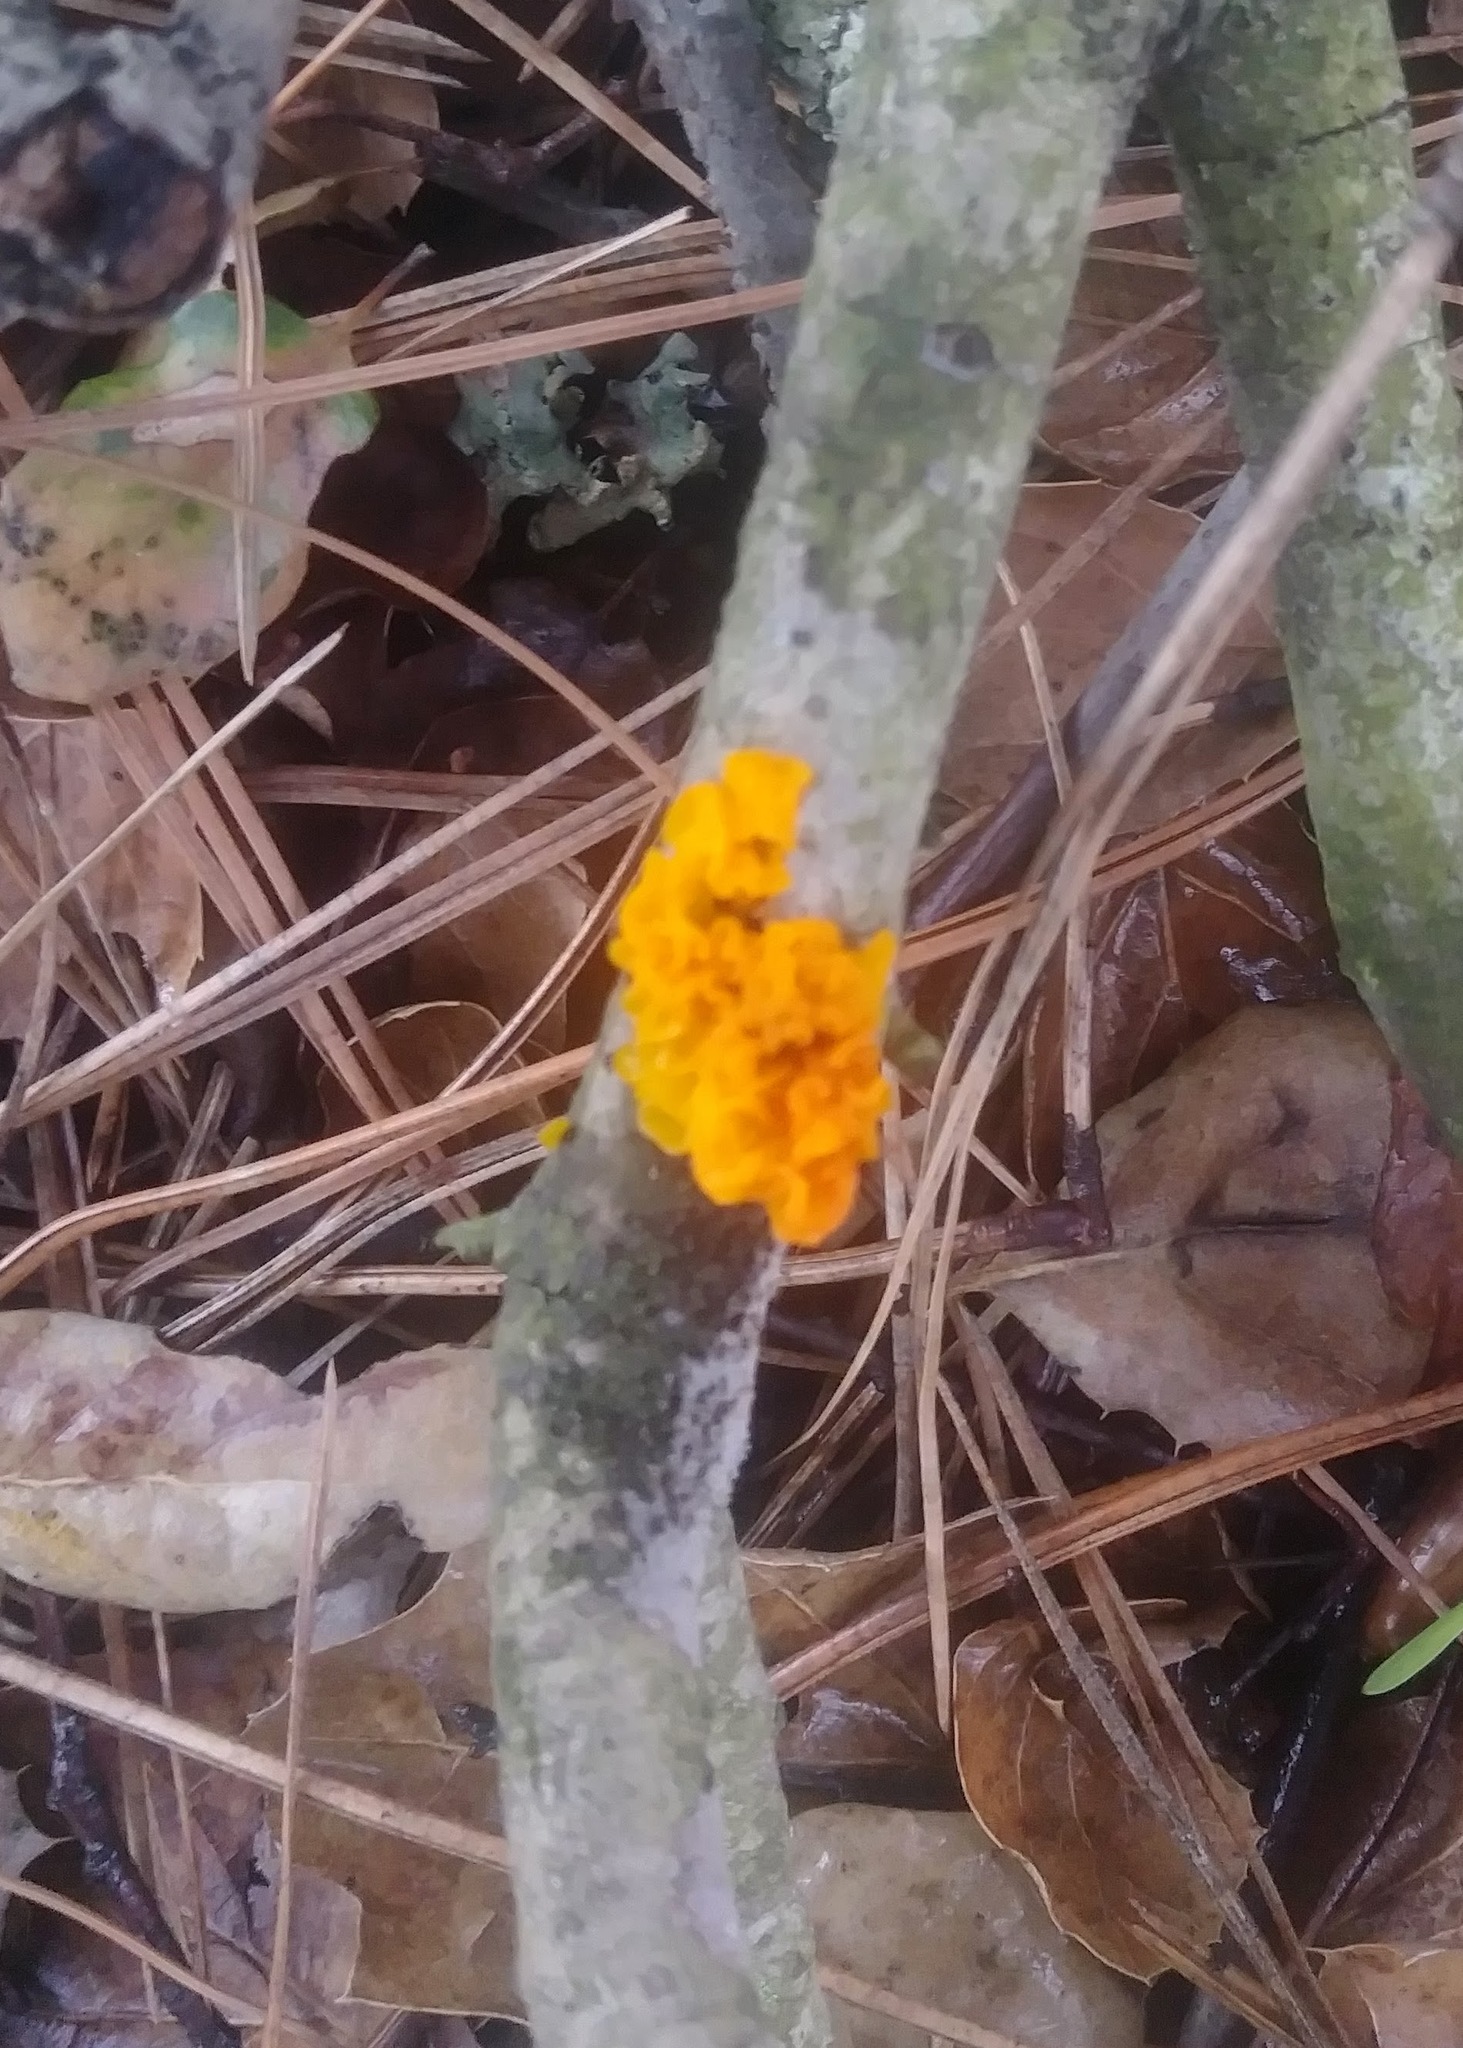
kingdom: Fungi
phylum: Basidiomycota
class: Tremellomycetes
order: Tremellales
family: Tremellaceae
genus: Tremella
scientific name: Tremella mesenterica
